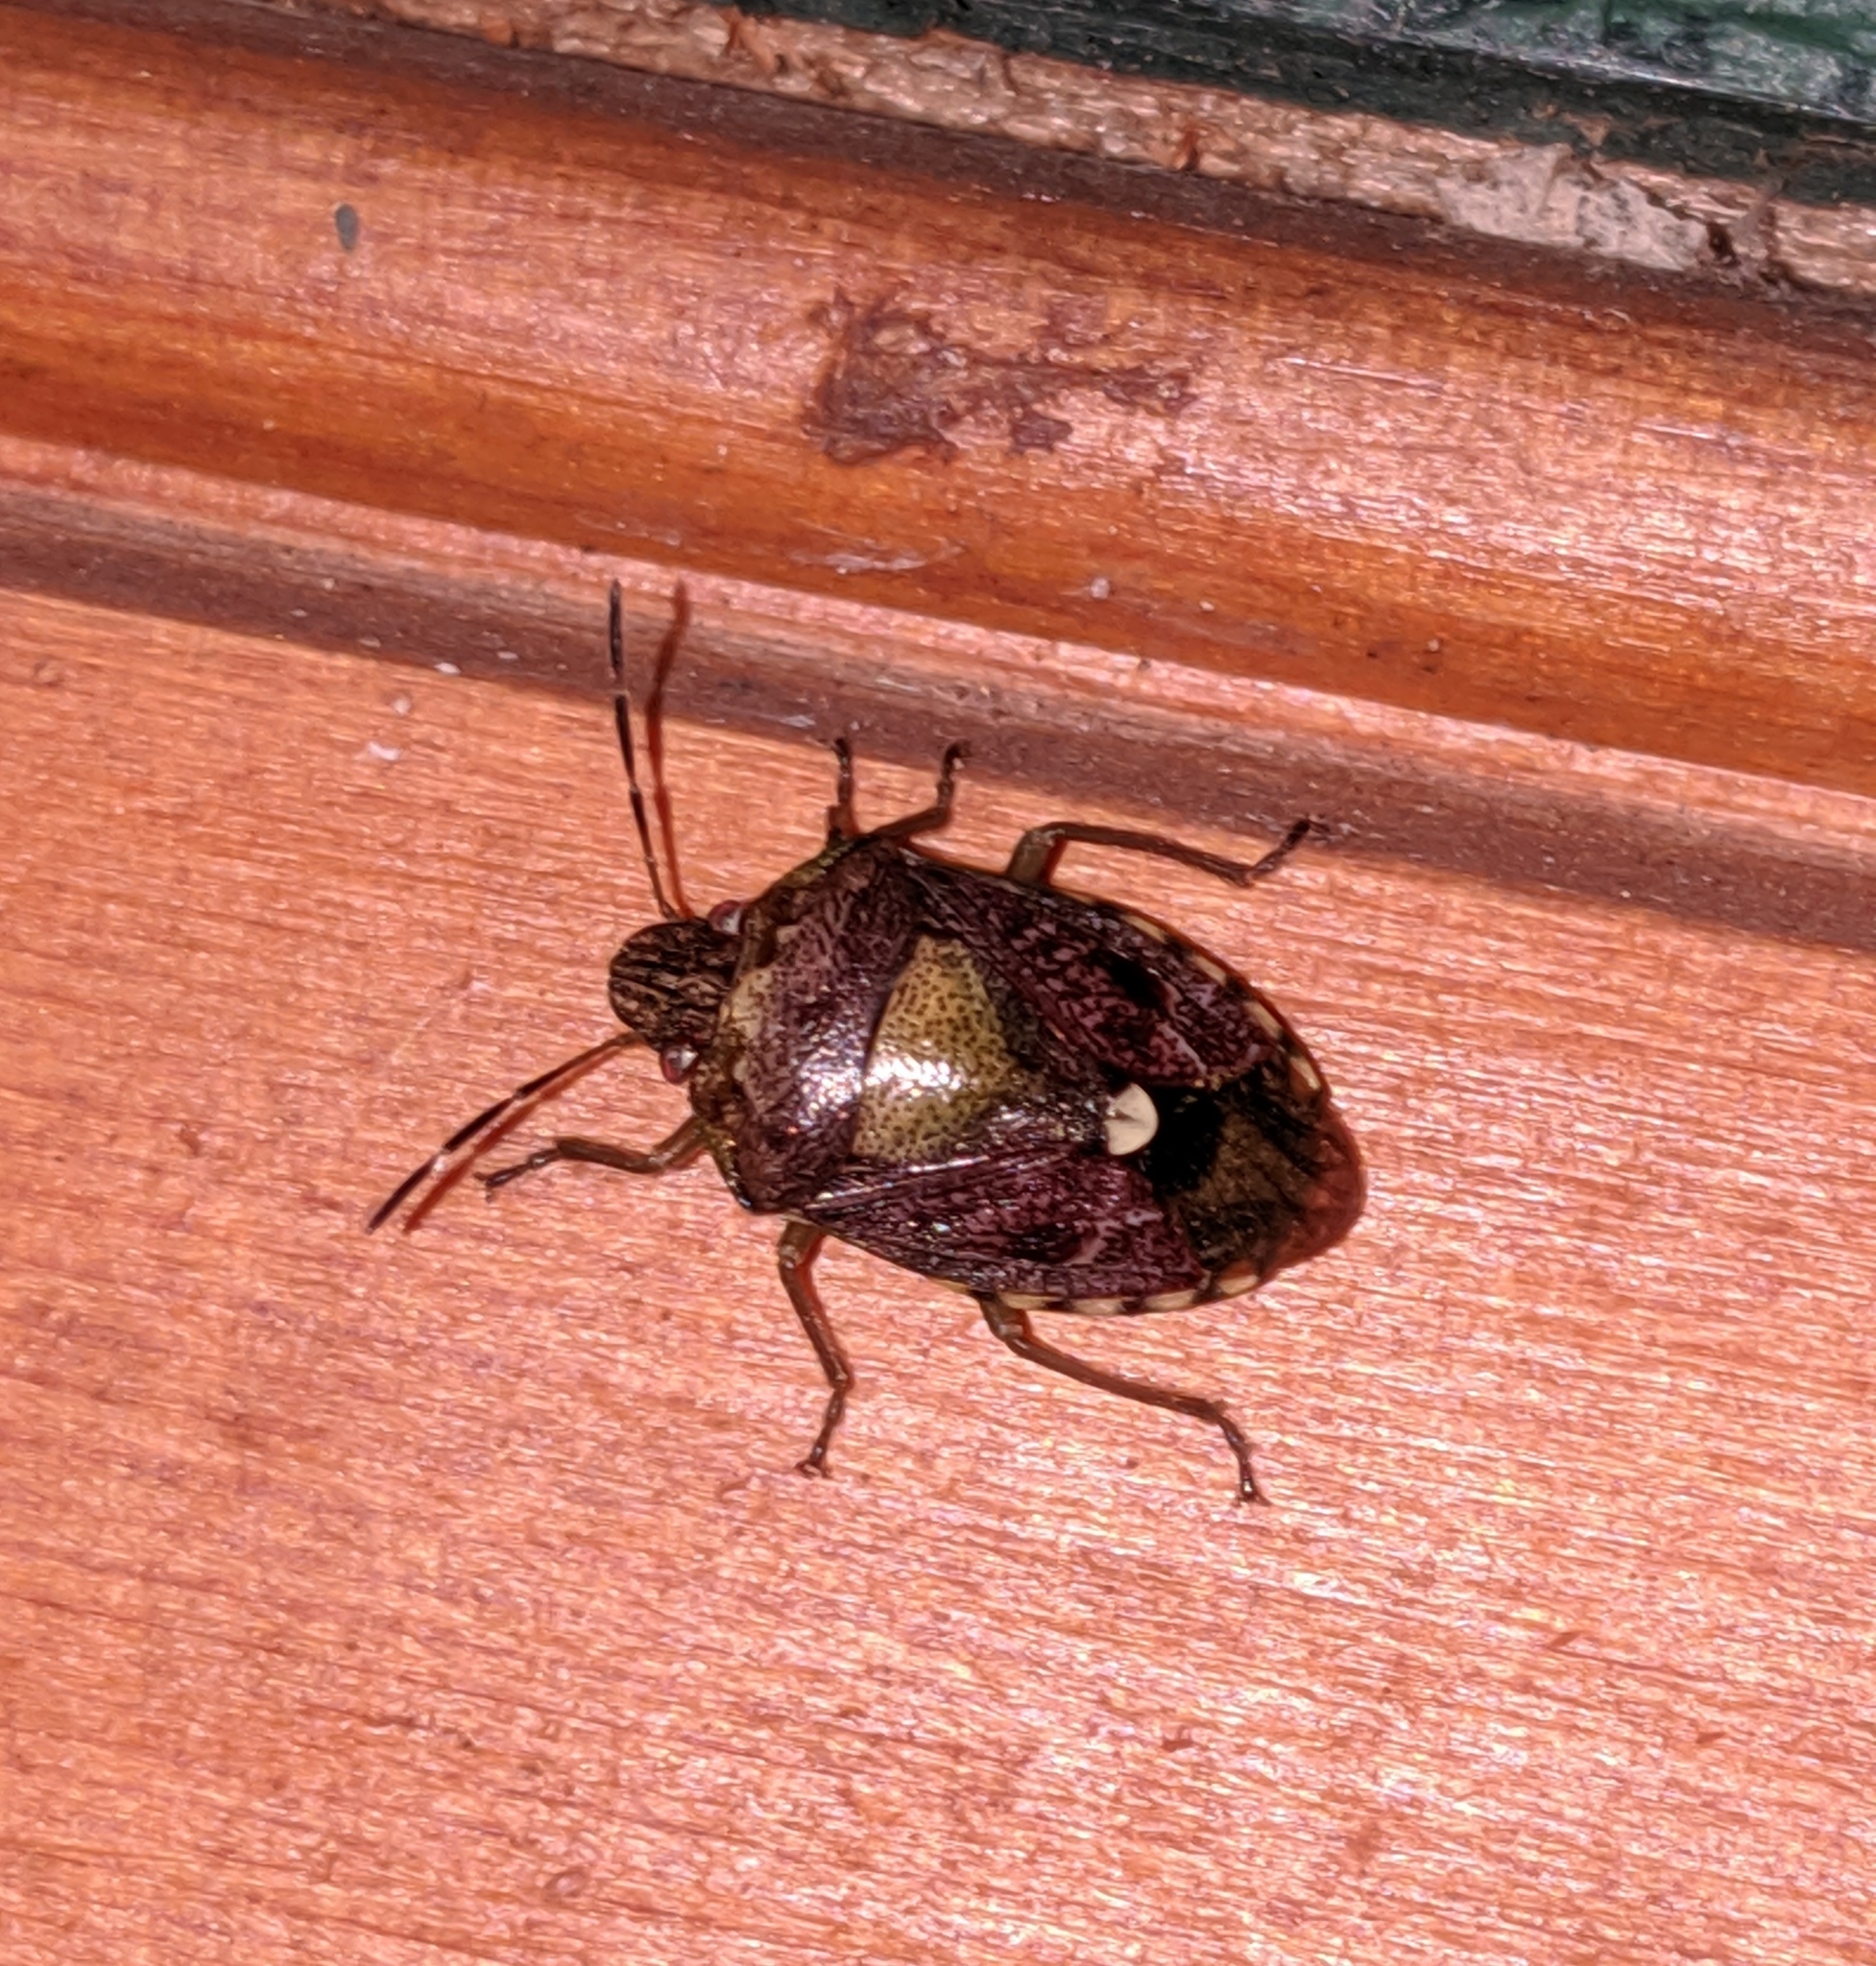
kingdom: Animalia
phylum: Arthropoda
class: Insecta
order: Hemiptera
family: Pentatomidae
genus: Banasa
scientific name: Banasa sordida
